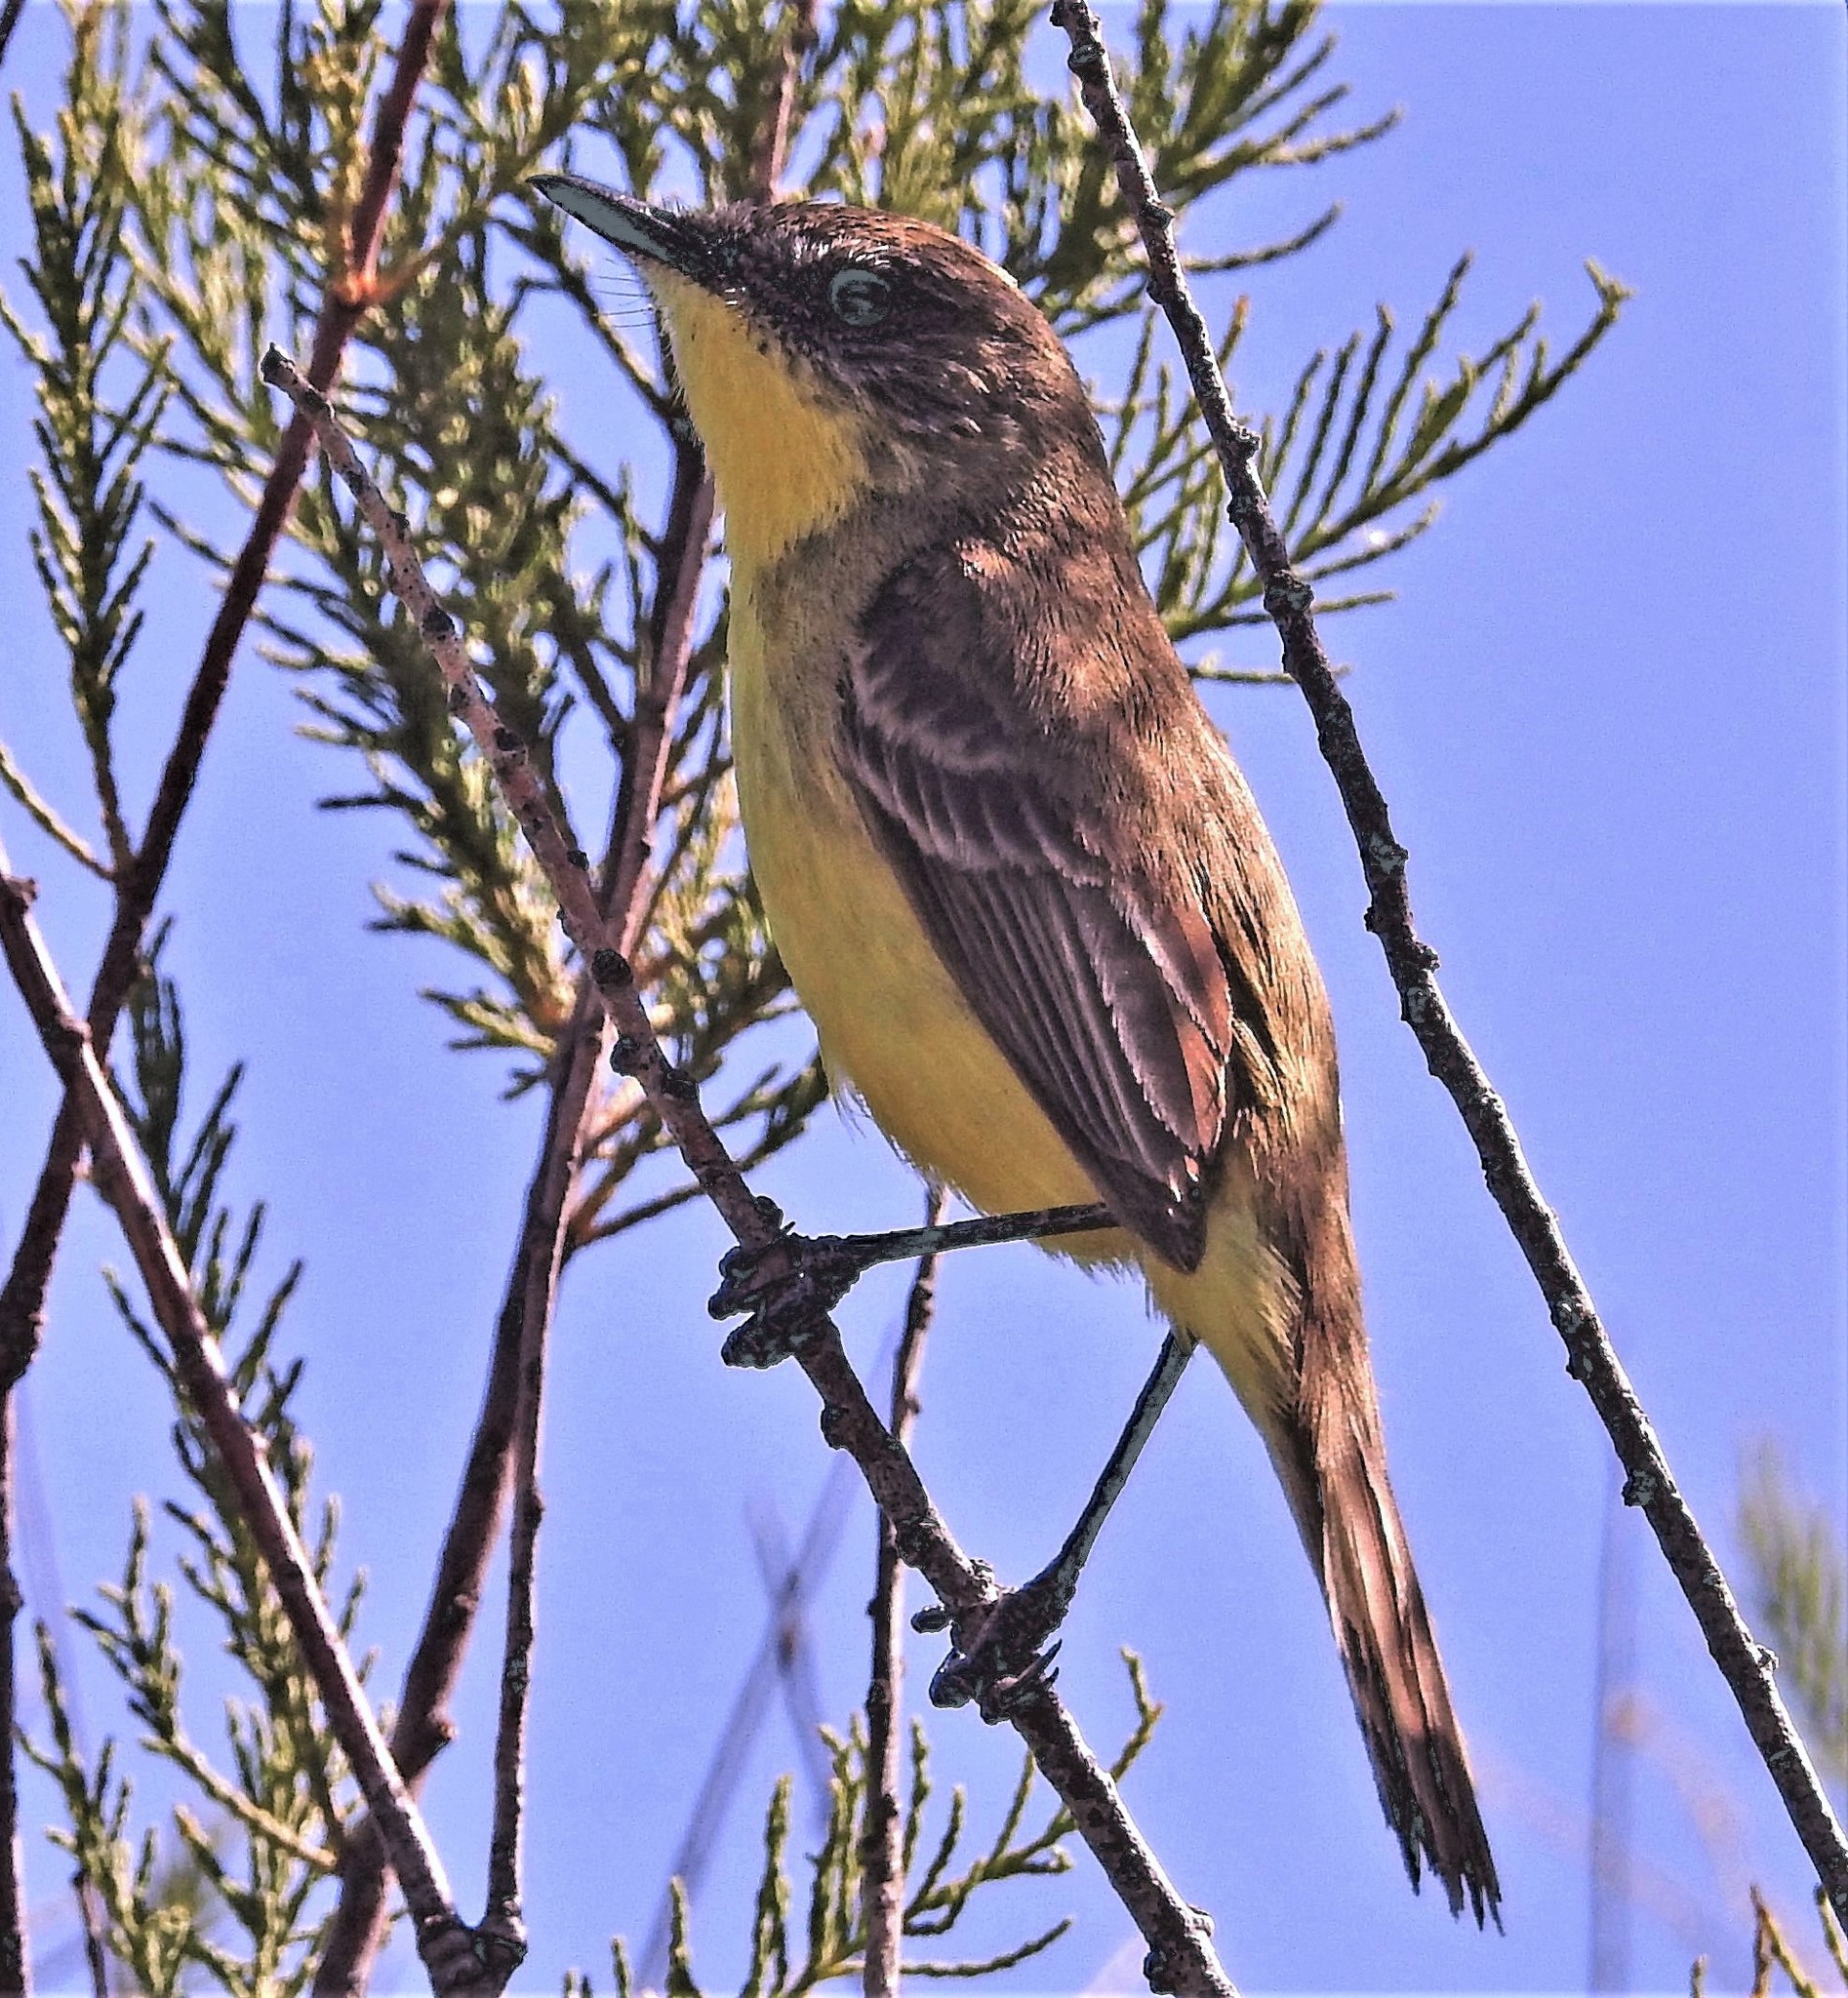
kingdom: Animalia
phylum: Chordata
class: Aves
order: Passeriformes
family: Tyrannidae
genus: Pseudocolopteryx
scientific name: Pseudocolopteryx citreola
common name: Ticking doradito
